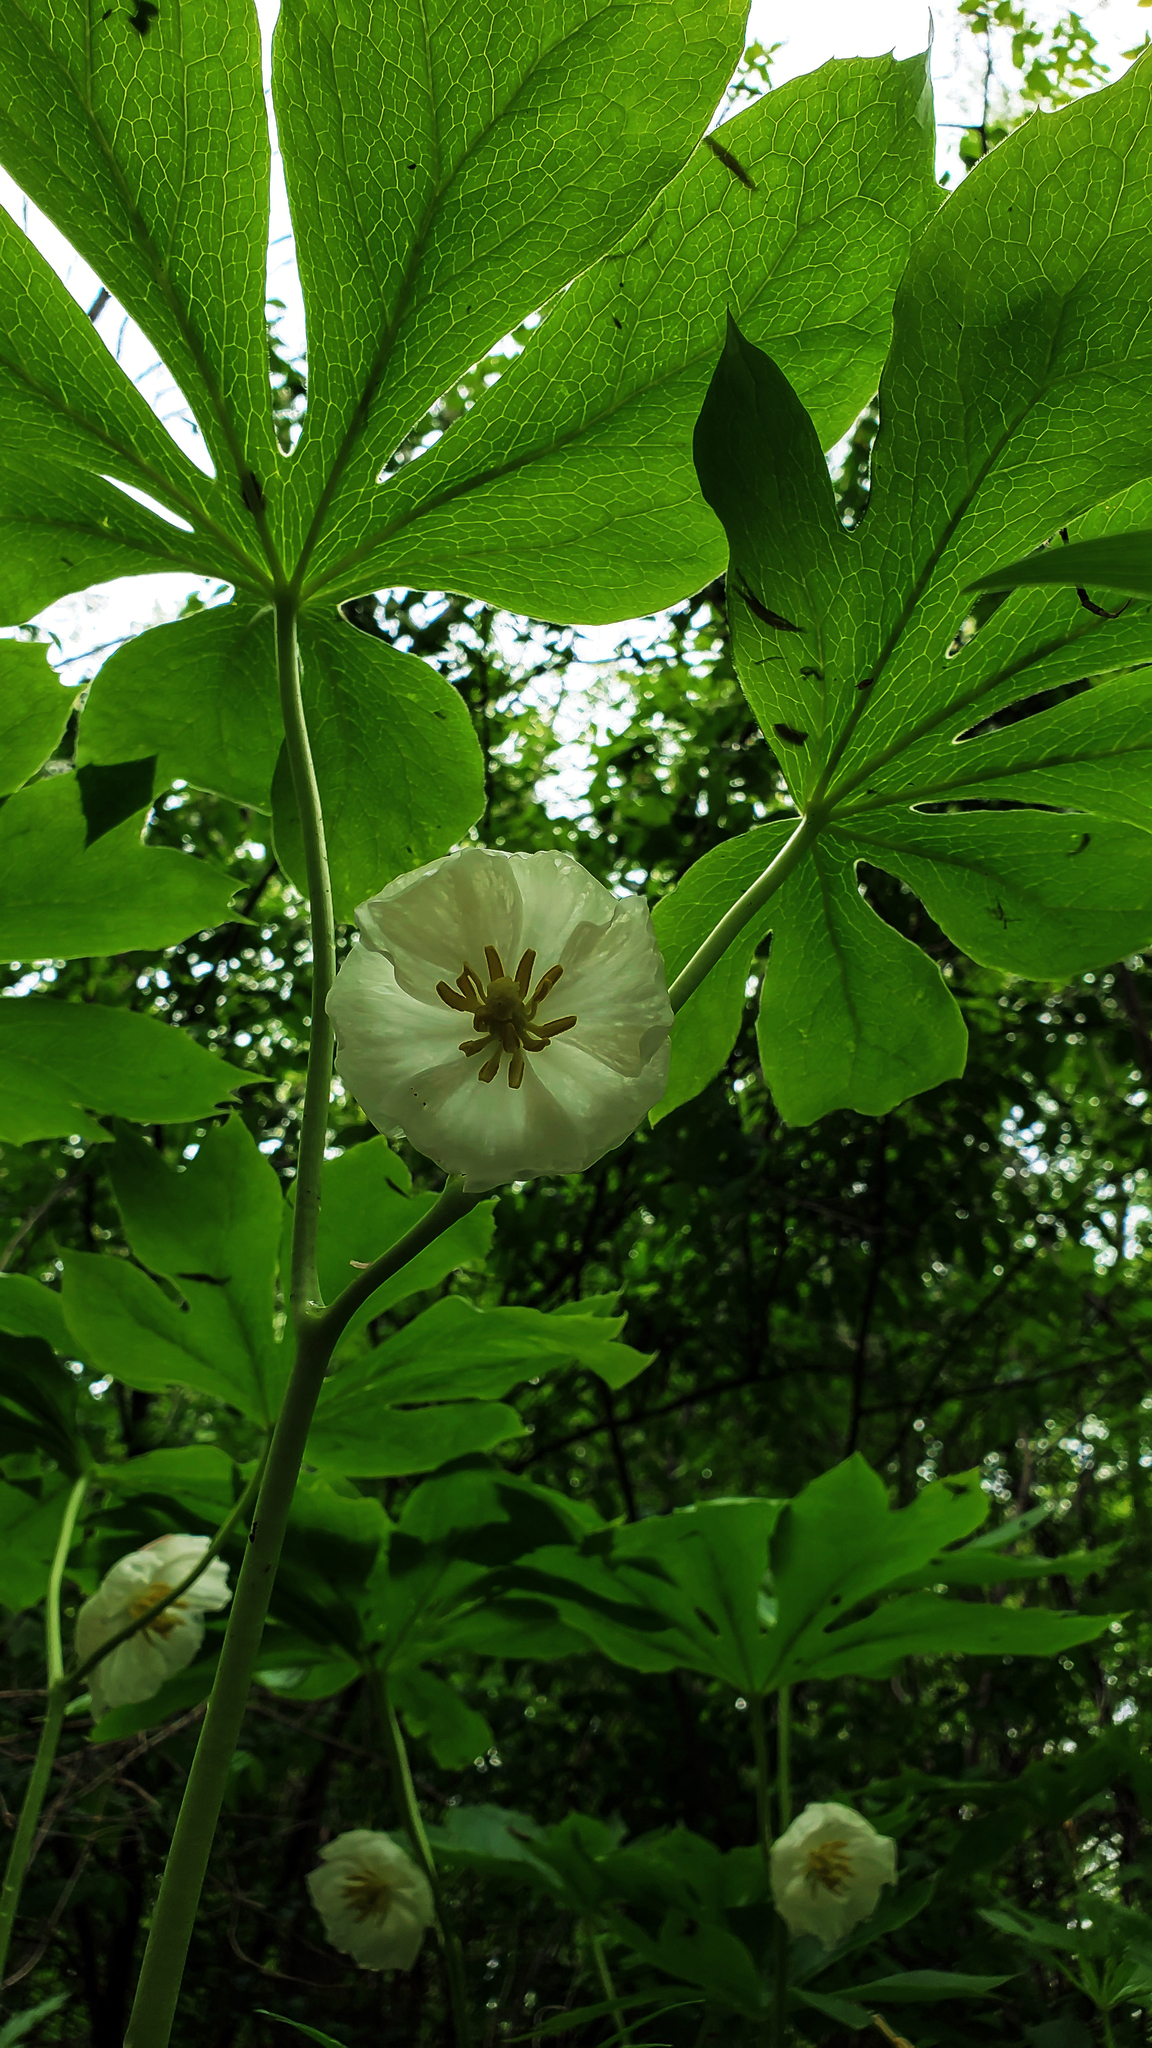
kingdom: Plantae
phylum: Tracheophyta
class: Magnoliopsida
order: Ranunculales
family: Berberidaceae
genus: Podophyllum
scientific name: Podophyllum peltatum
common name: Wild mandrake
